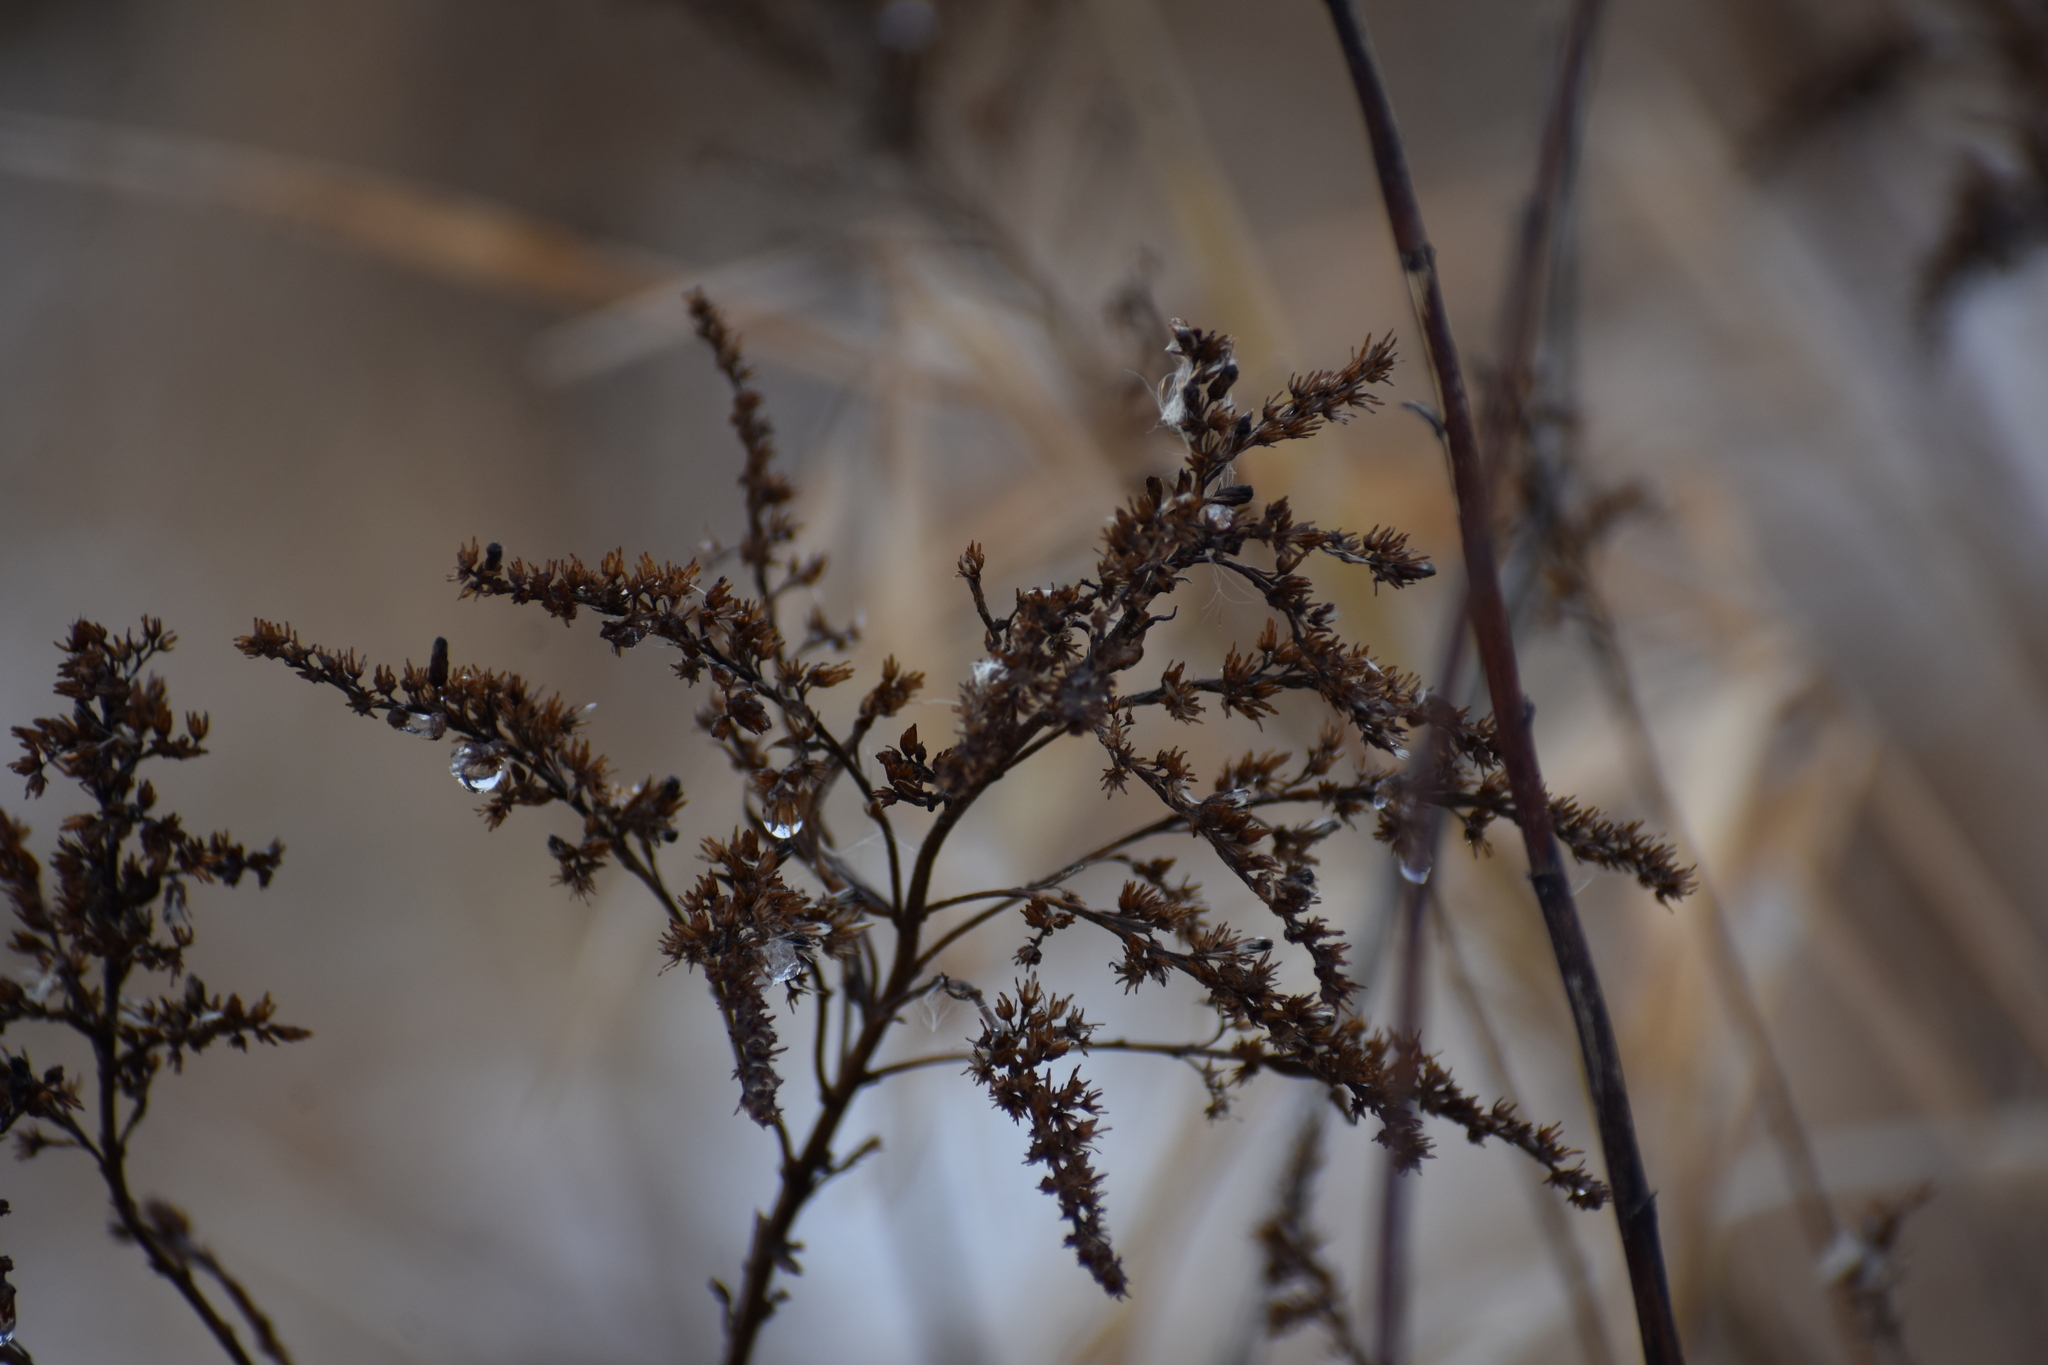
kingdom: Plantae
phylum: Tracheophyta
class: Magnoliopsida
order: Asterales
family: Asteraceae
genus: Solidago
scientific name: Solidago
